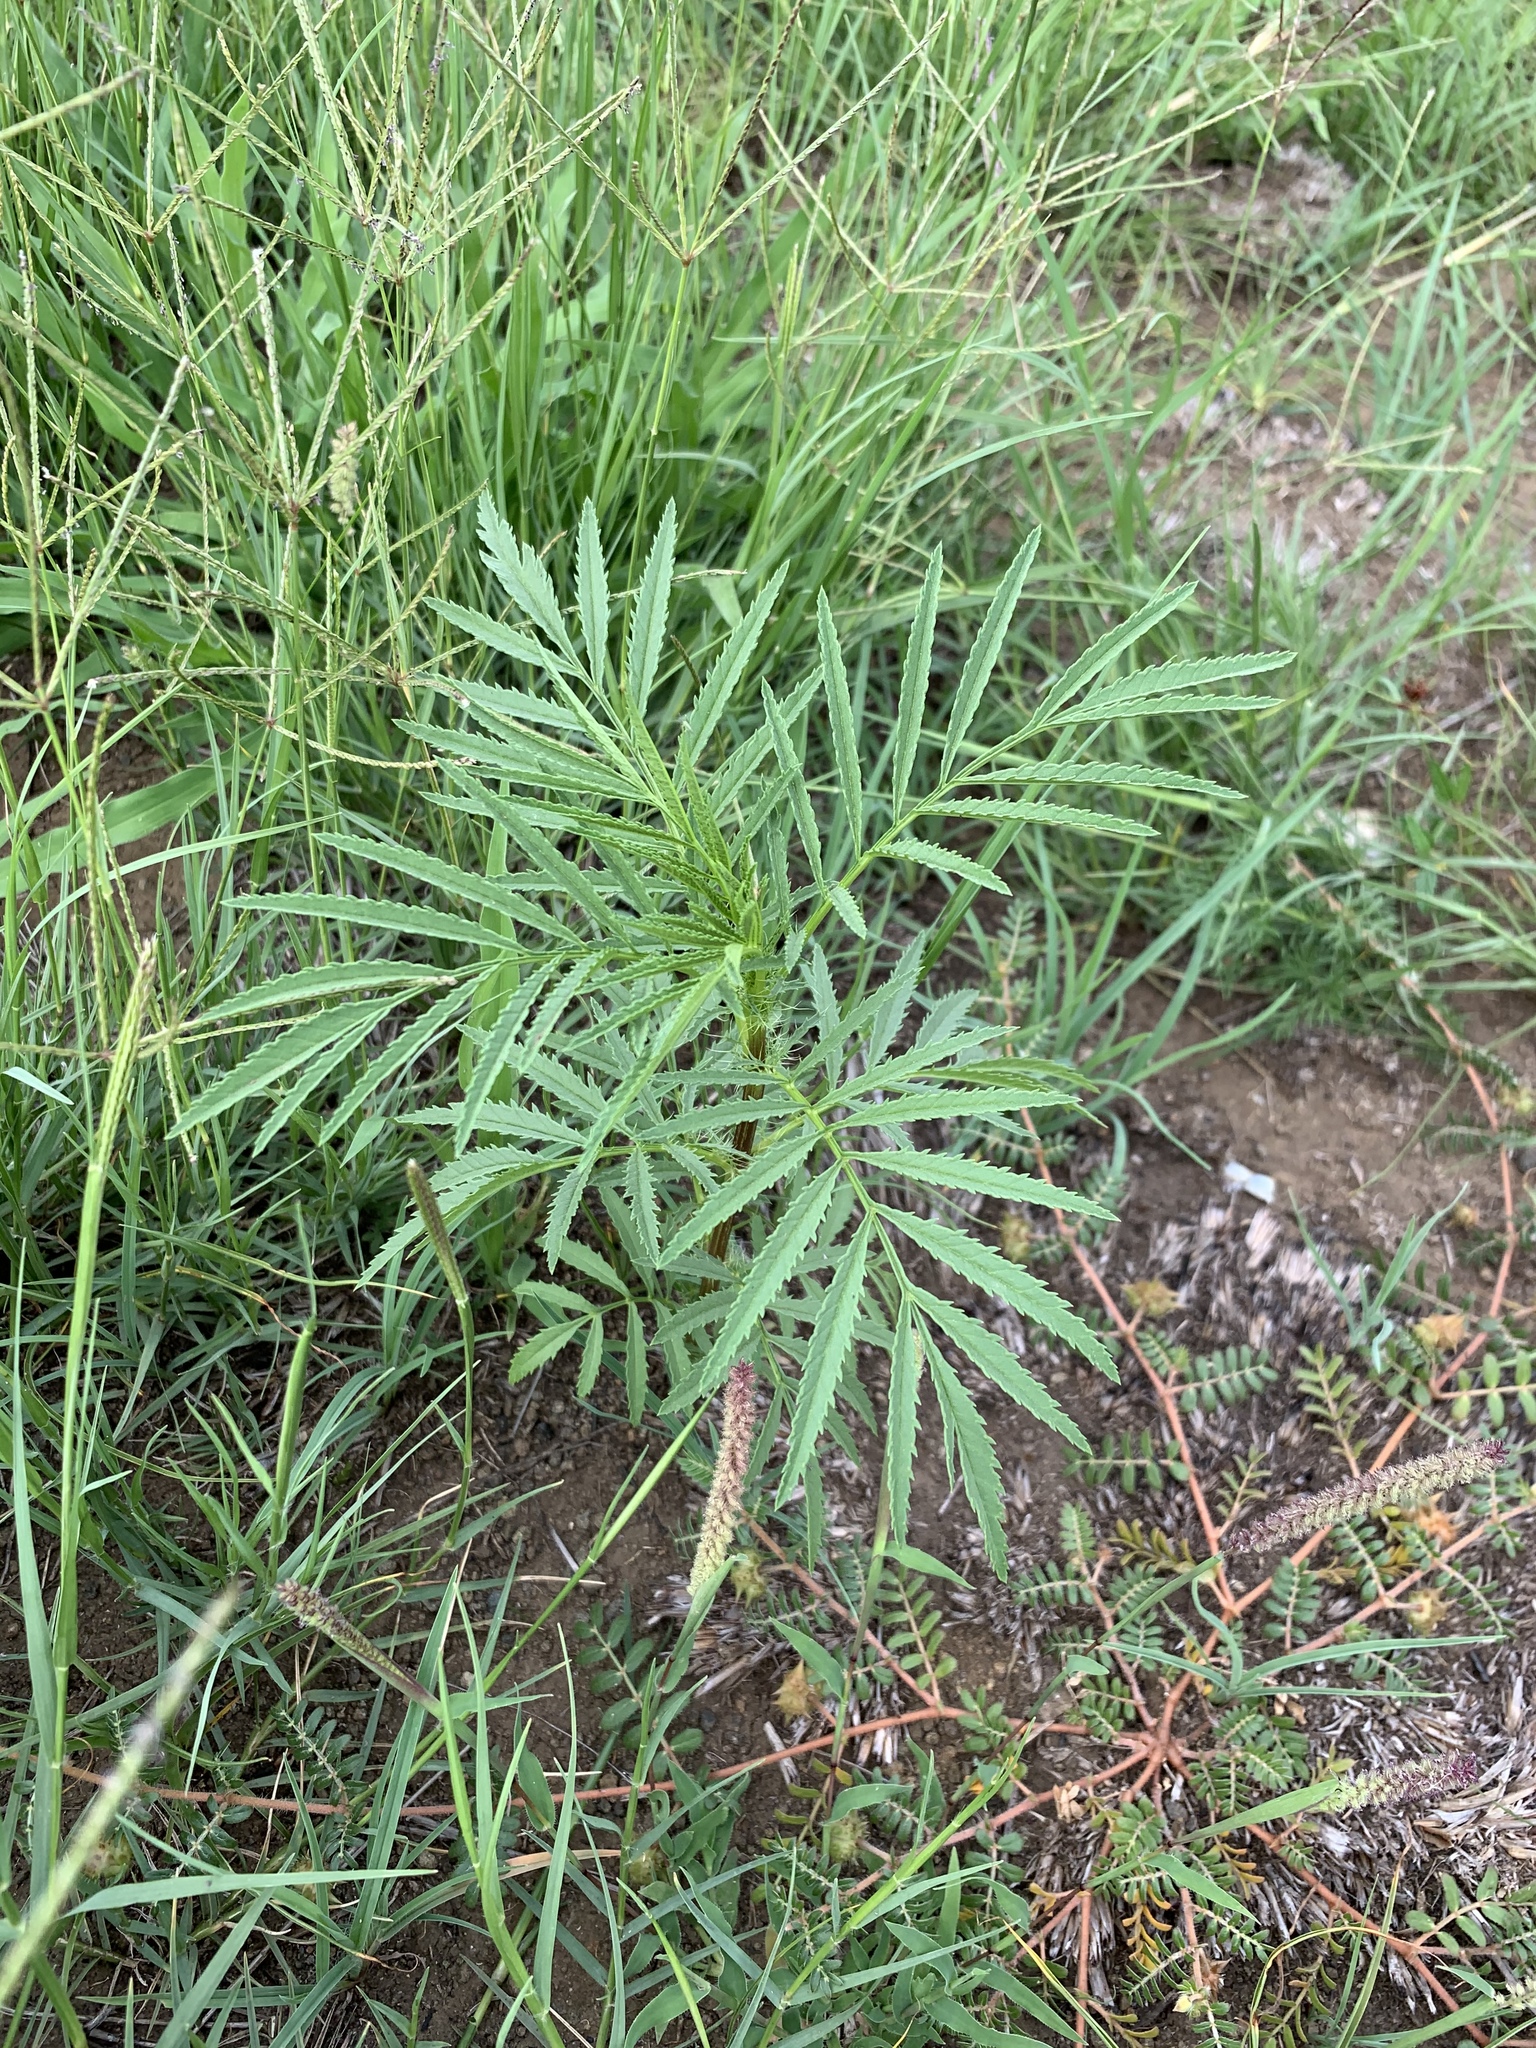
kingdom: Plantae
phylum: Tracheophyta
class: Magnoliopsida
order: Asterales
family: Asteraceae
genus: Tagetes
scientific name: Tagetes minuta
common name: Muster john henry
